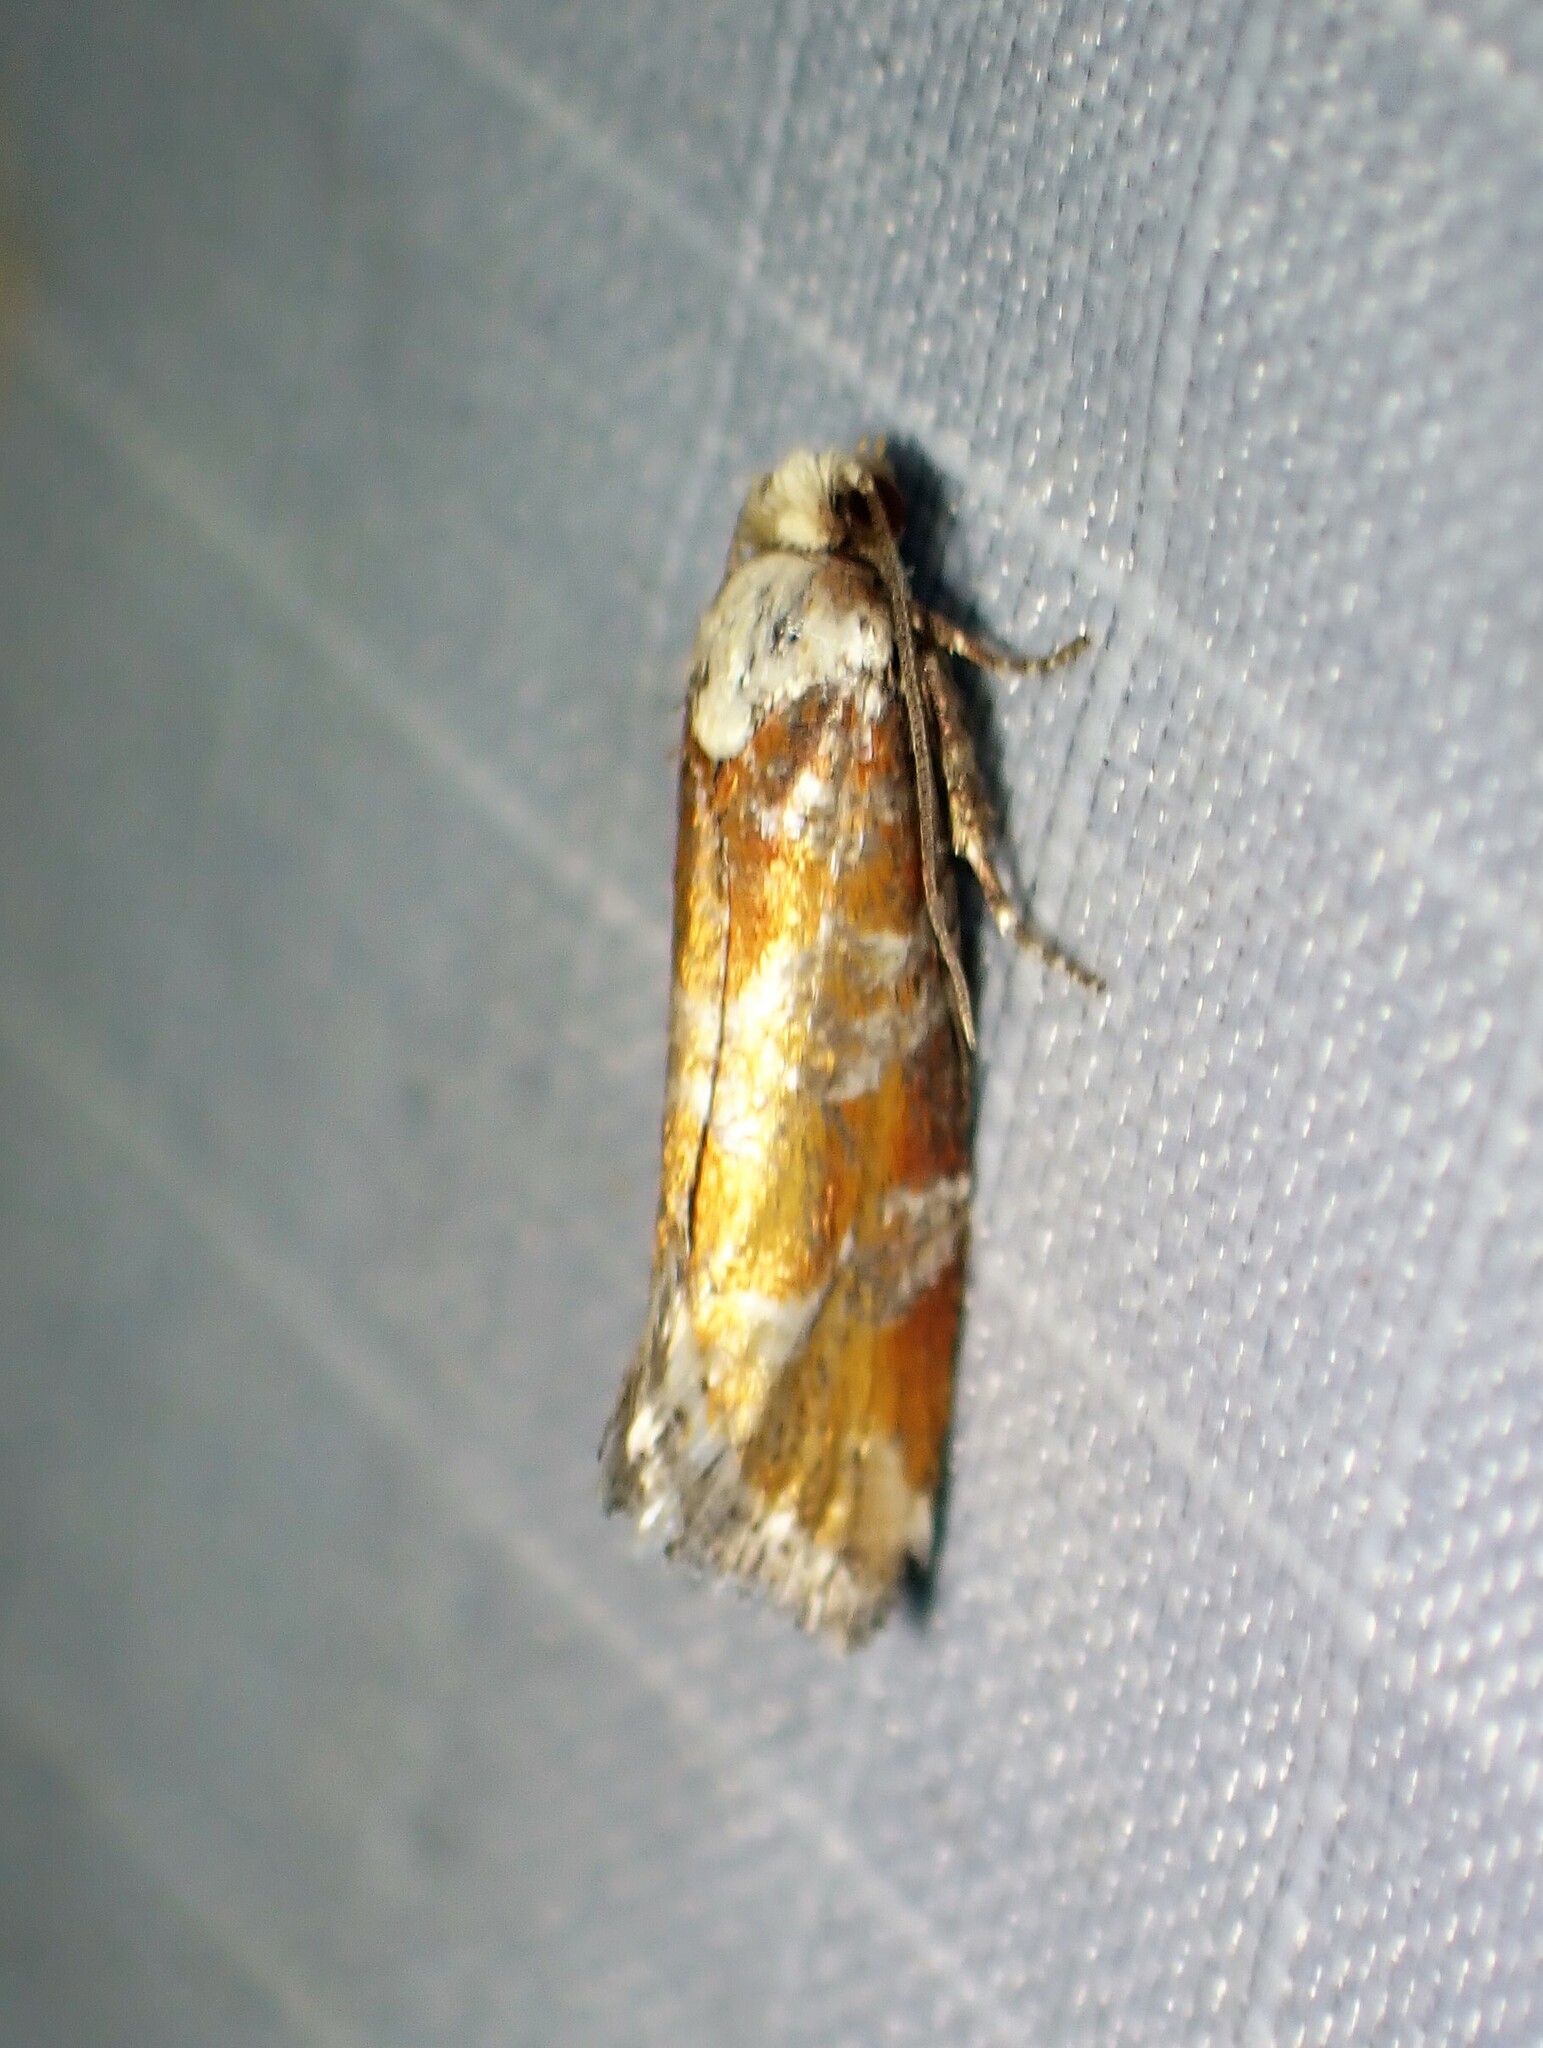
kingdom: Animalia
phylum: Arthropoda
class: Insecta
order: Lepidoptera
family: Tortricidae
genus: Eucopina
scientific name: Eucopina gloriola
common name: White-pine shoot borer moth
